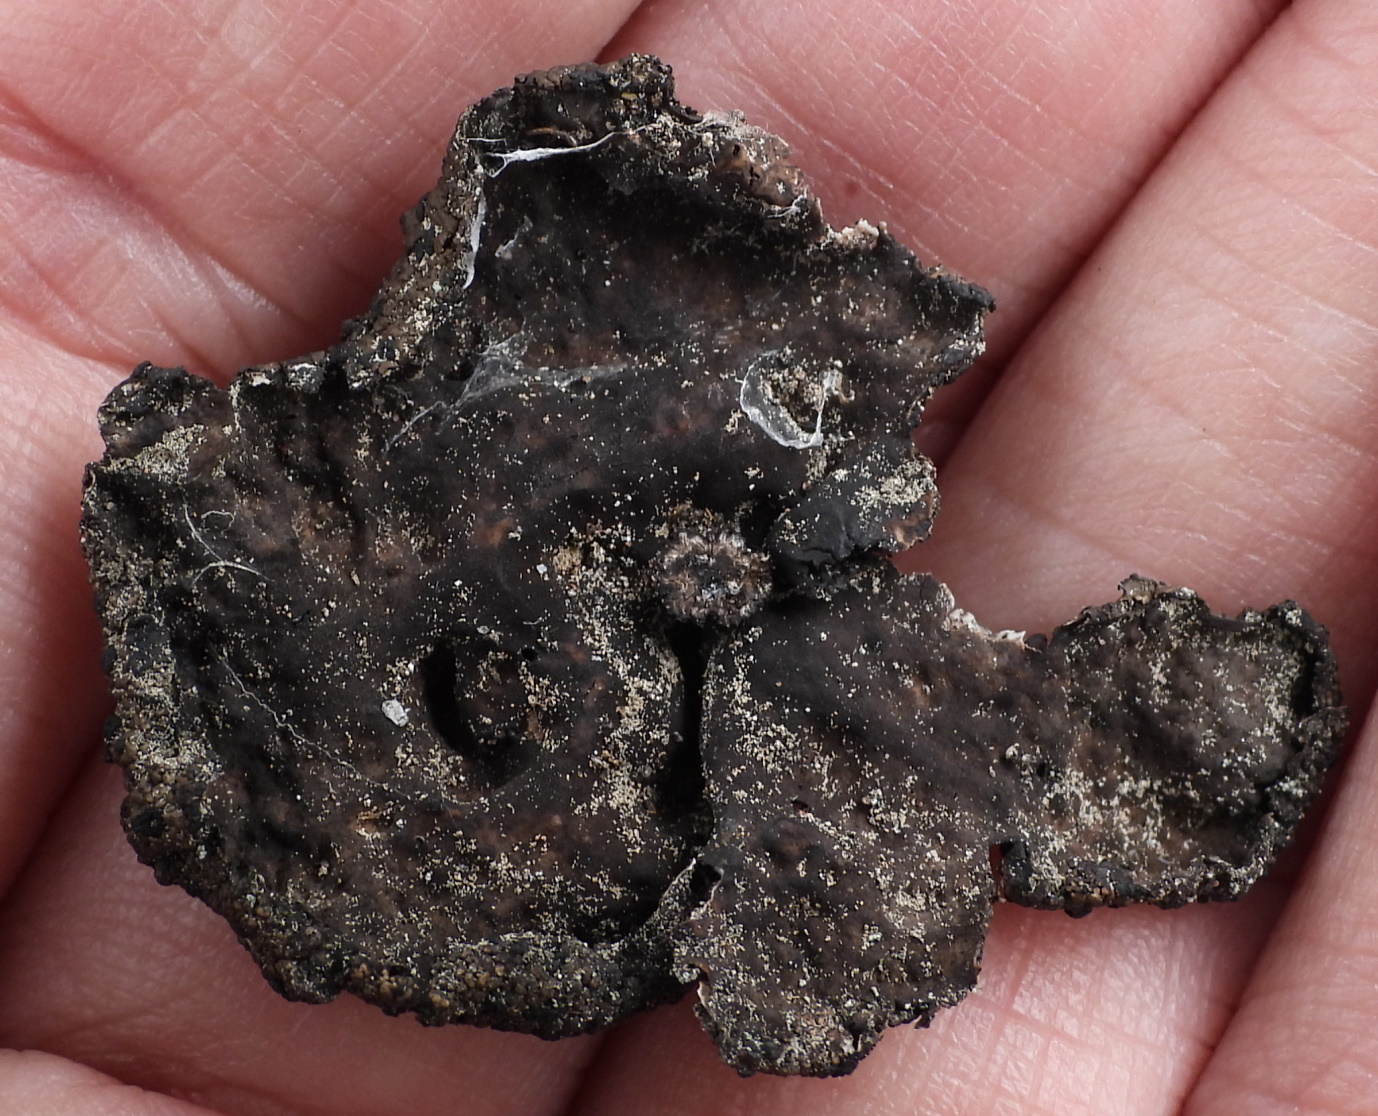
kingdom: Fungi
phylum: Ascomycota
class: Lecanoromycetes
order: Umbilicariales
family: Umbilicariaceae
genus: Umbilicaria
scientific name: Umbilicaria torrefacta
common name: Punctured rock tripe lichen
